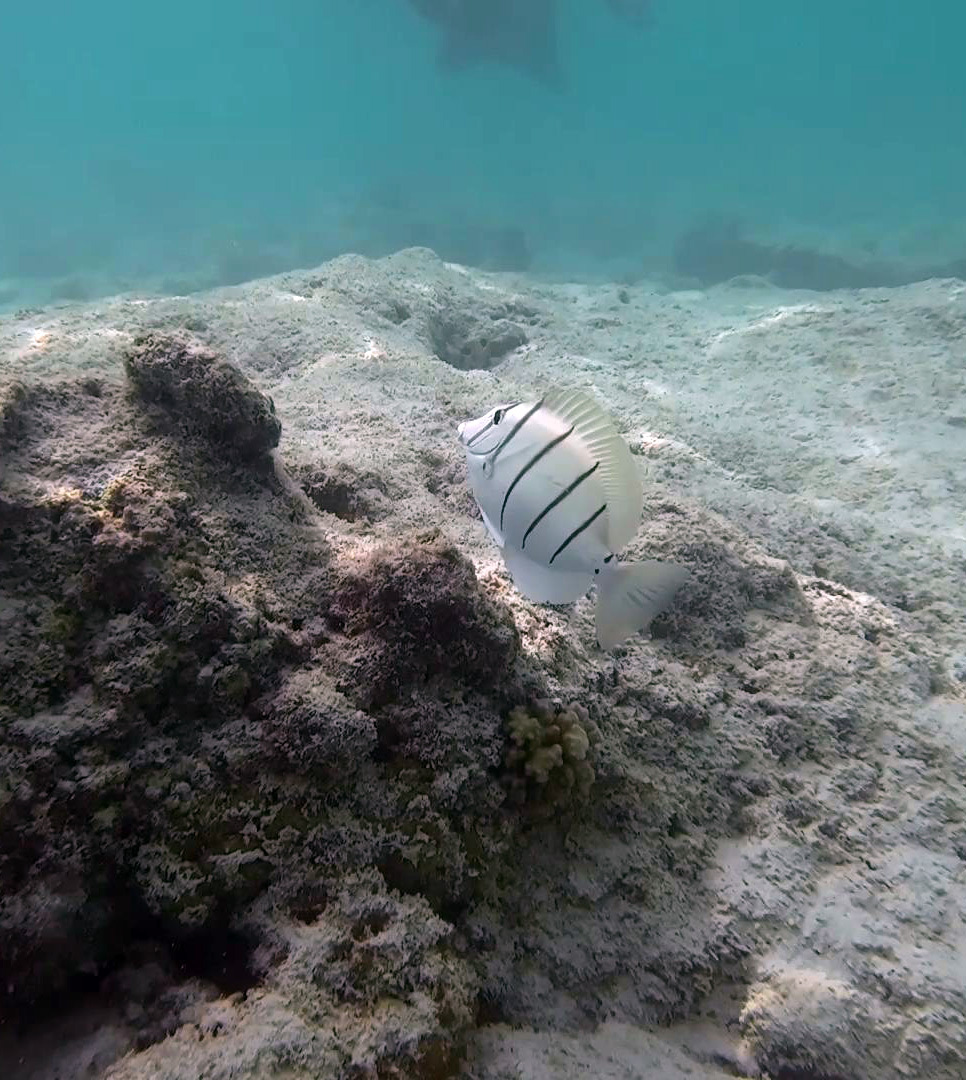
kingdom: Animalia
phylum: Chordata
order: Perciformes
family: Acanthuridae
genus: Acanthurus
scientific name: Acanthurus triostegus
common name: Convict surgeonfish
